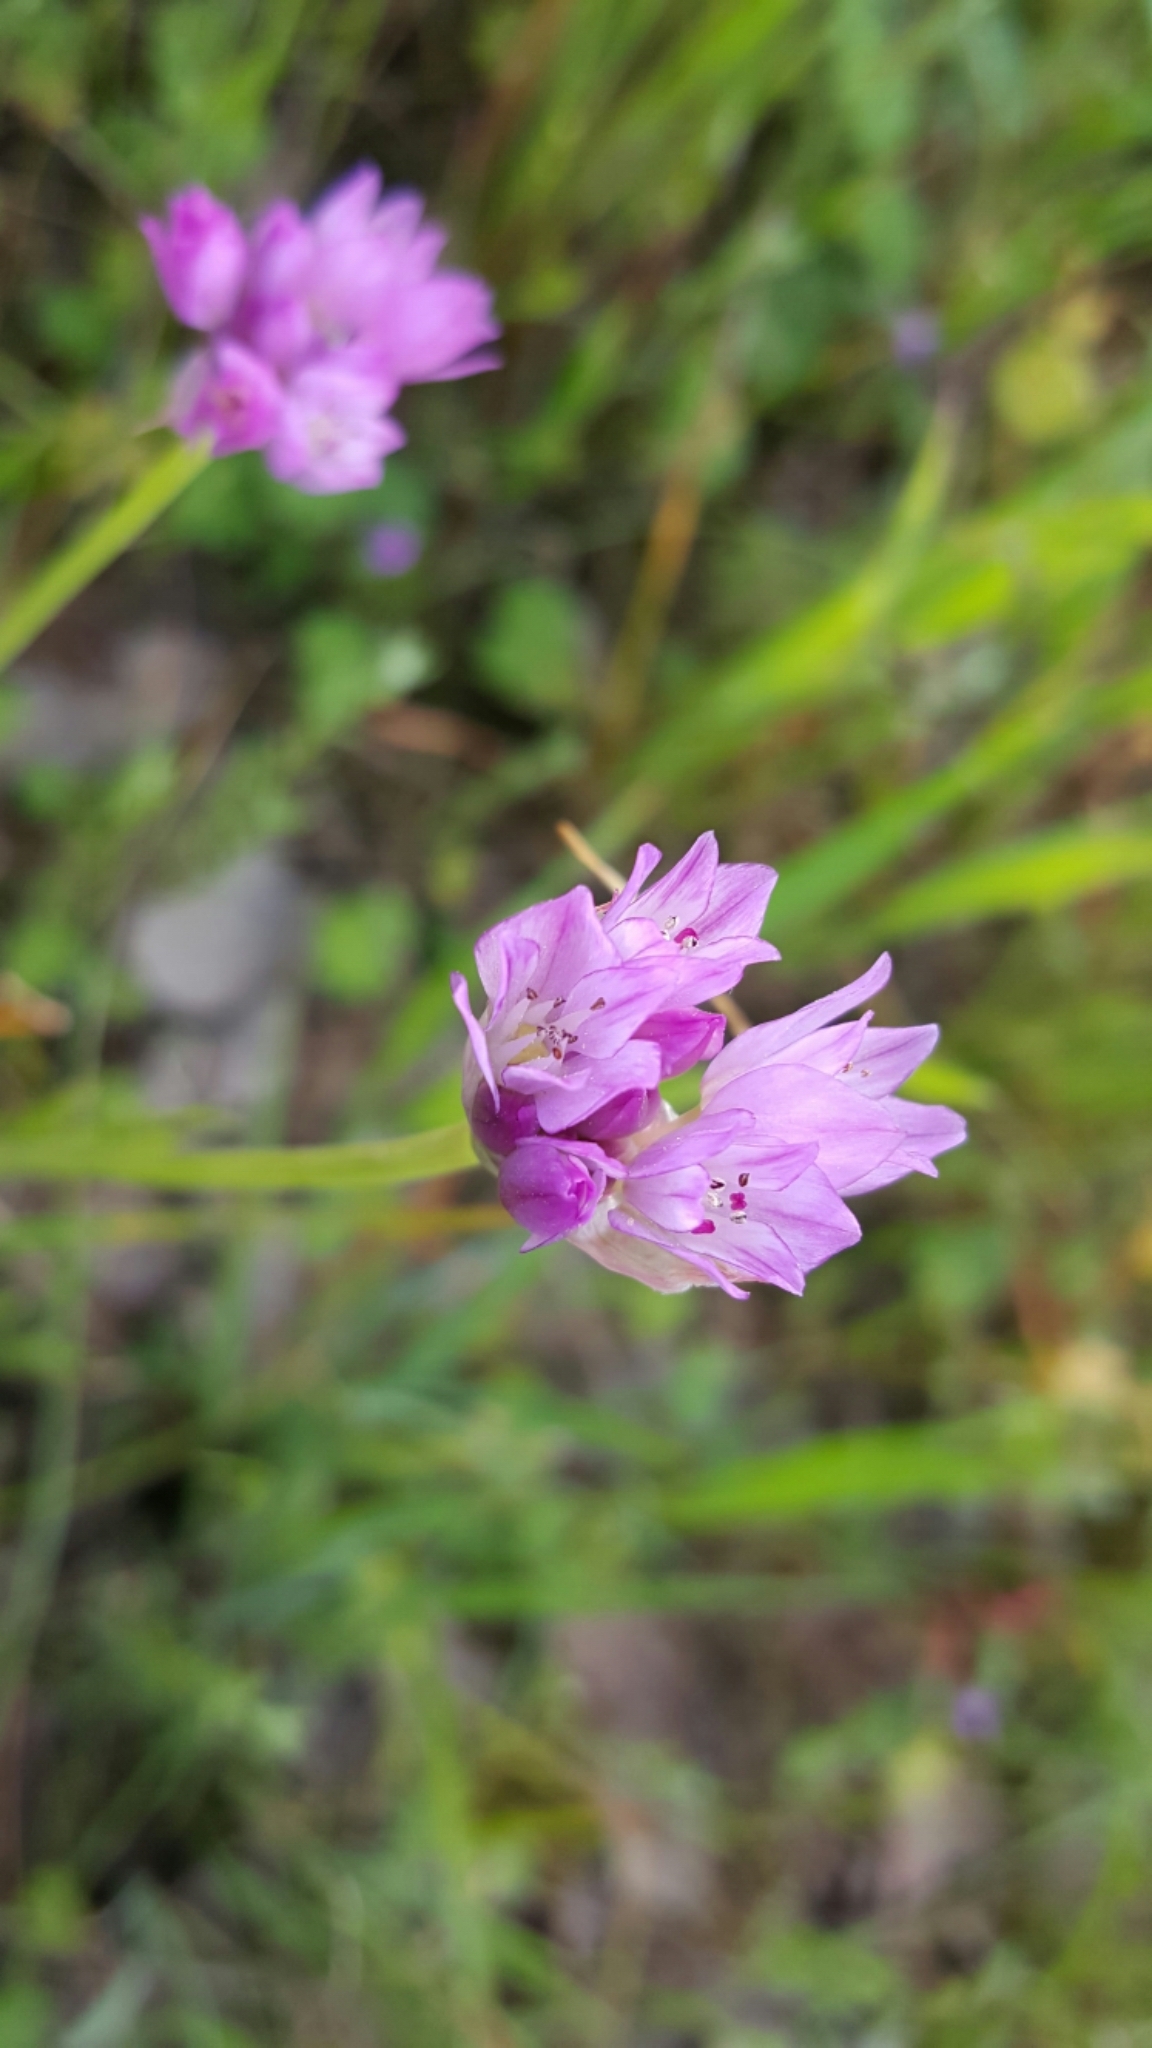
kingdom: Plantae
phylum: Tracheophyta
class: Liliopsida
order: Asparagales
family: Amaryllidaceae
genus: Allium
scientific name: Allium serra
